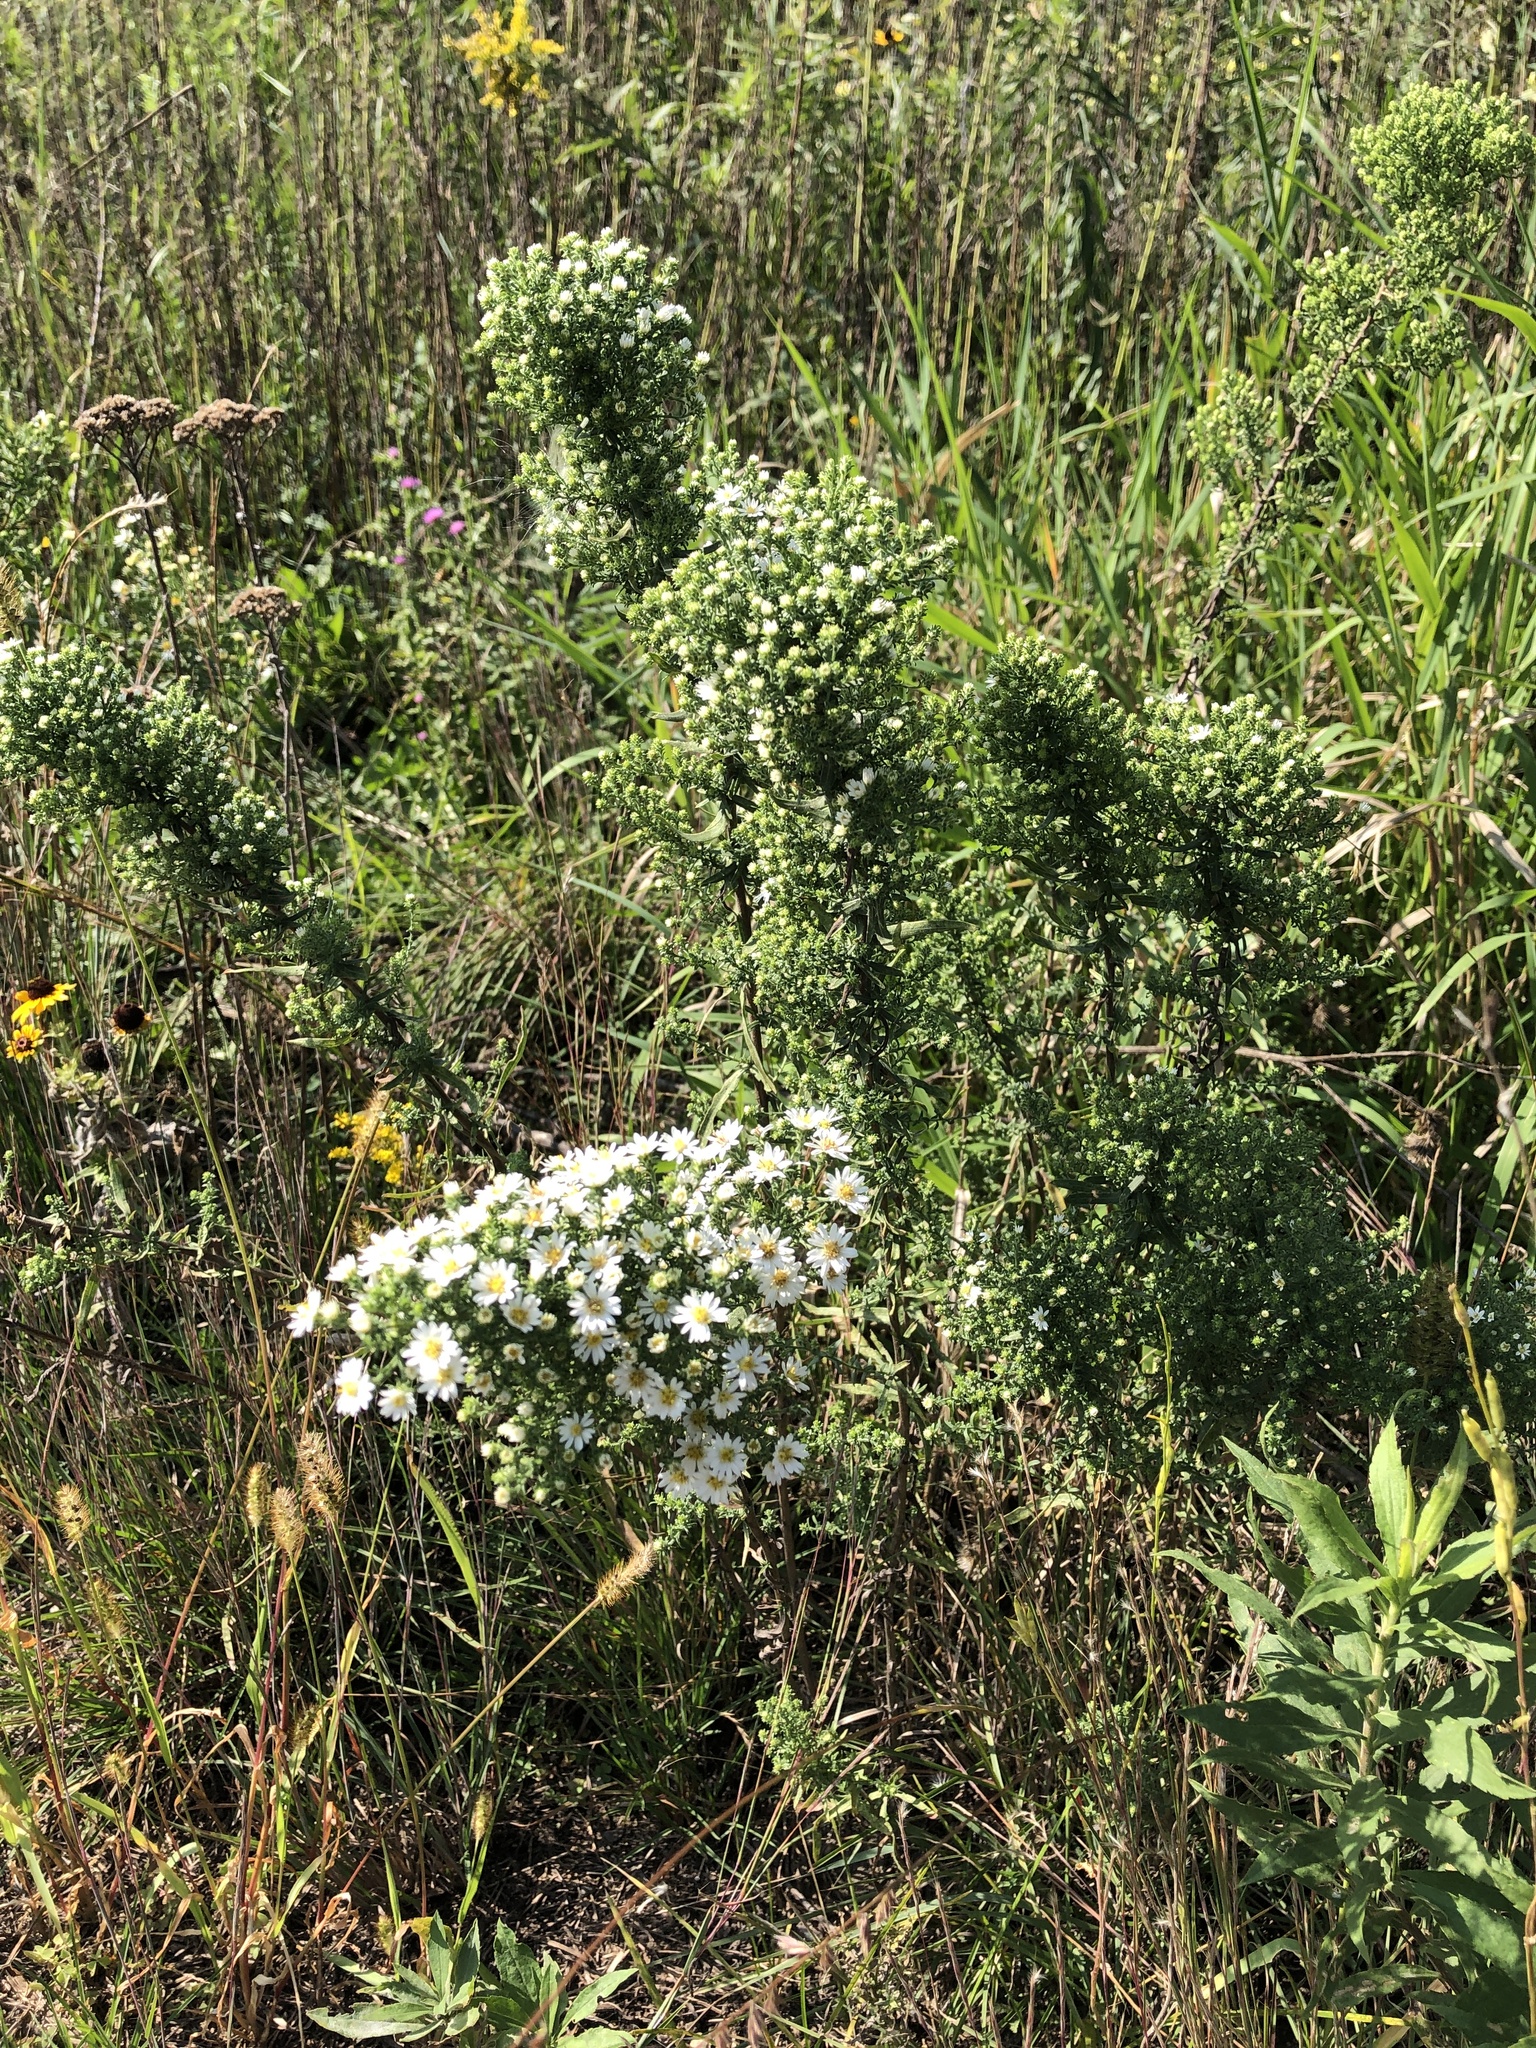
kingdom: Plantae
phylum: Tracheophyta
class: Magnoliopsida
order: Asterales
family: Asteraceae
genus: Symphyotrichum
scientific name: Symphyotrichum ericoides
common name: Heath aster
